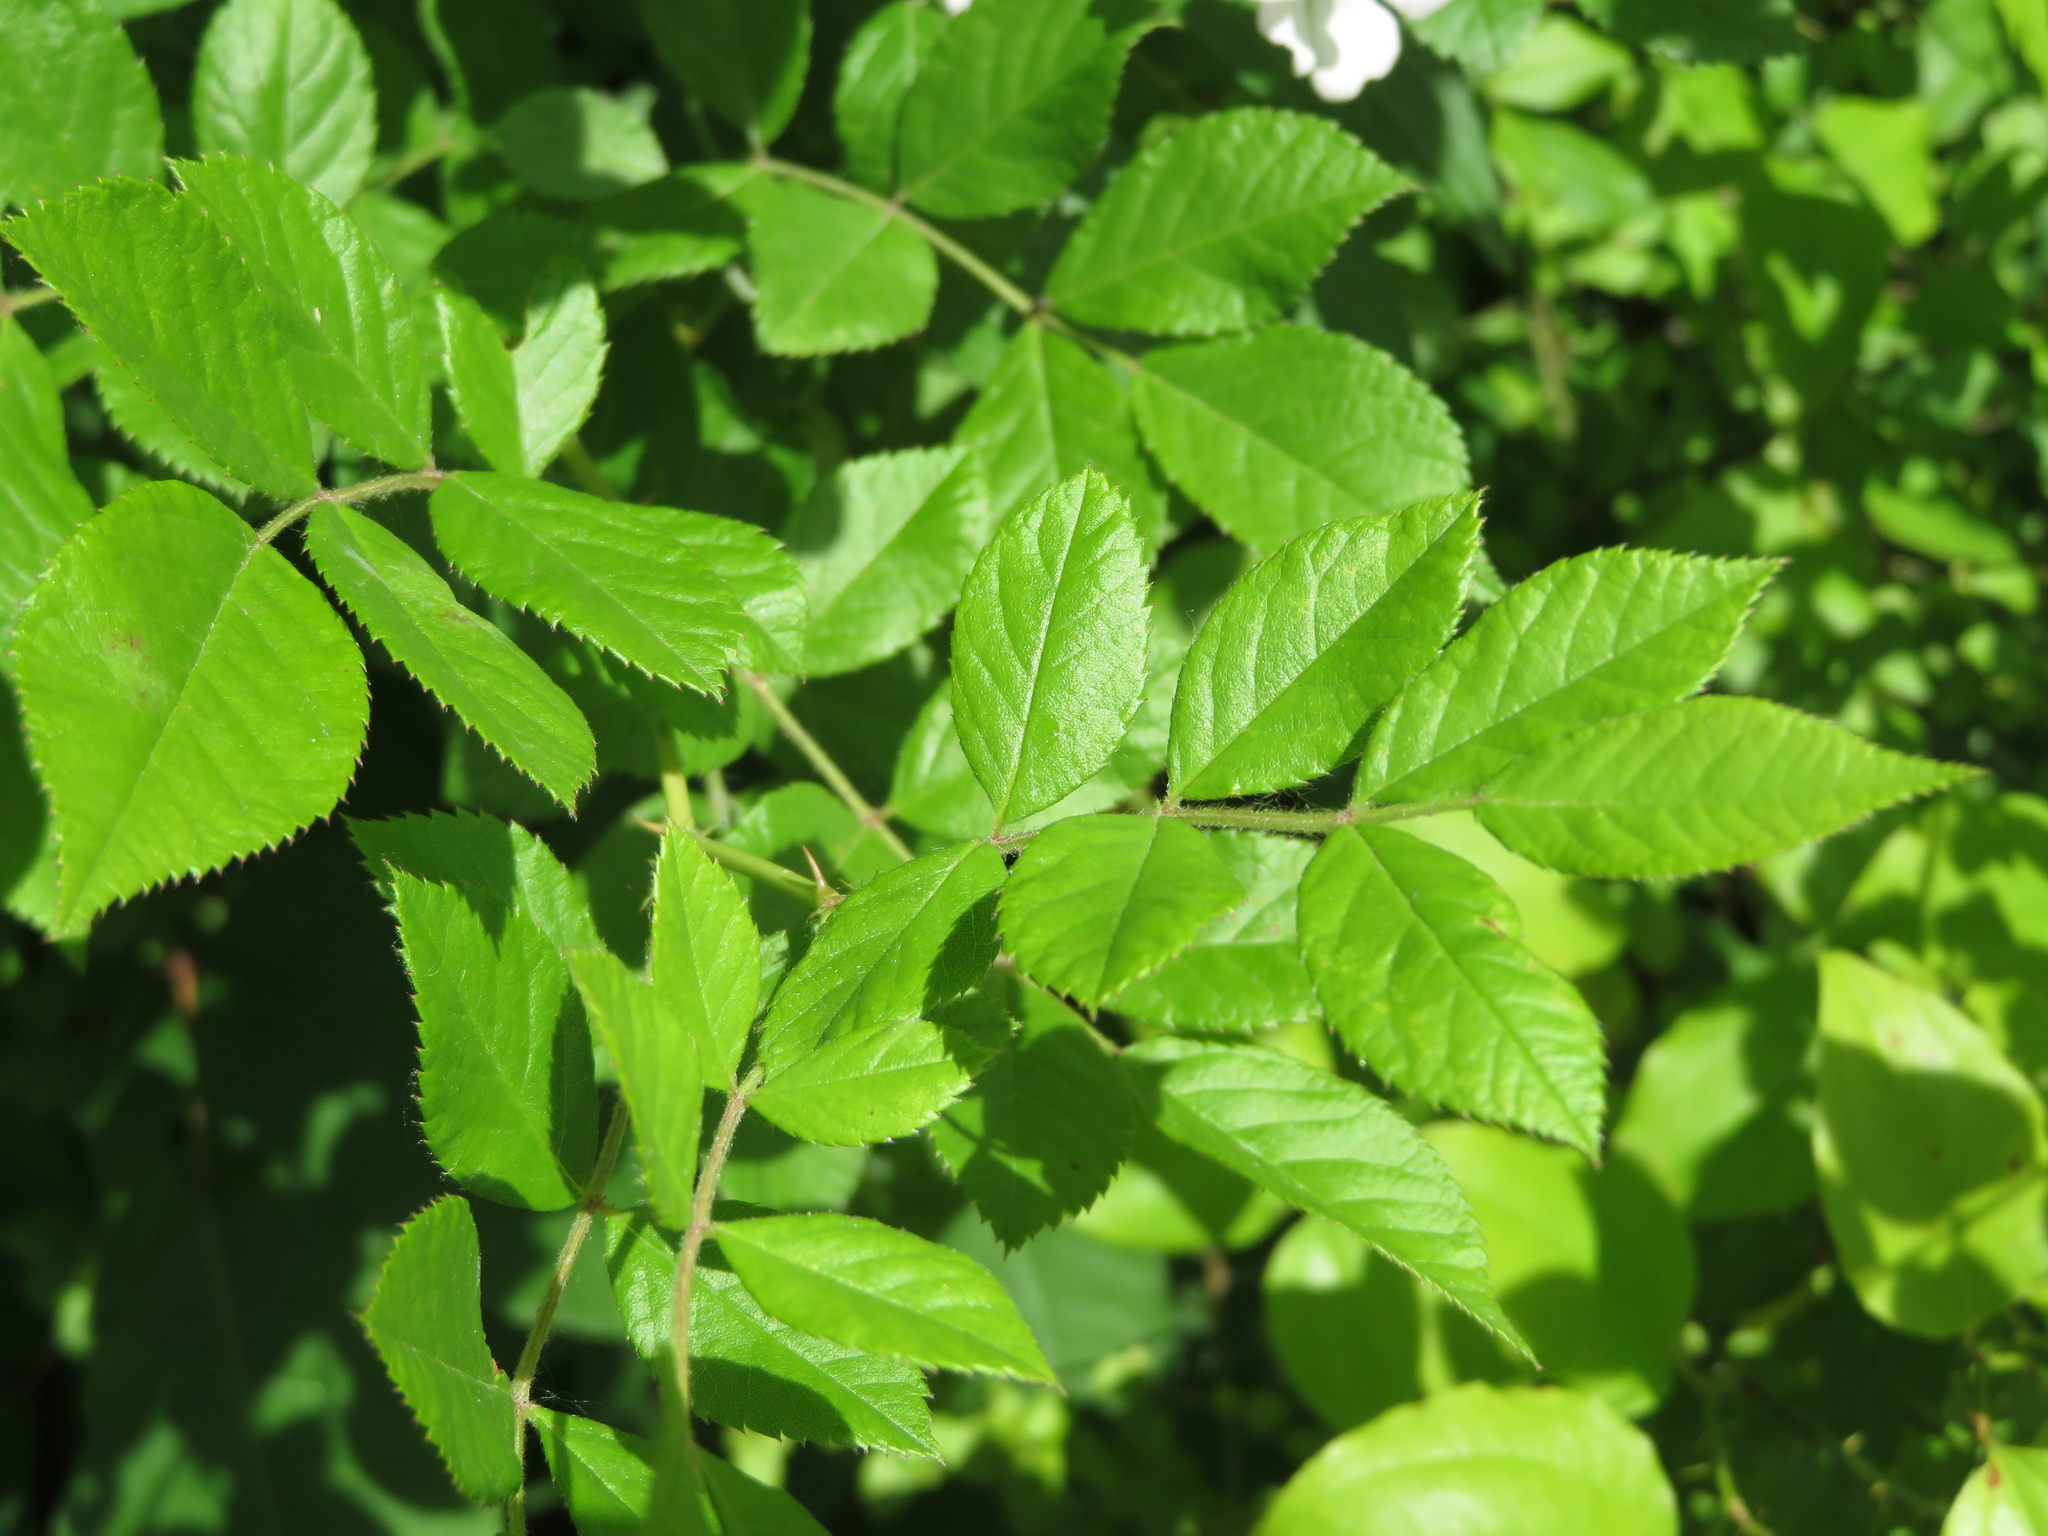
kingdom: Plantae
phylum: Tracheophyta
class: Magnoliopsida
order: Rosales
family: Rosaceae
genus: Rosa
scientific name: Rosa multiflora
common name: Multiflora rose
